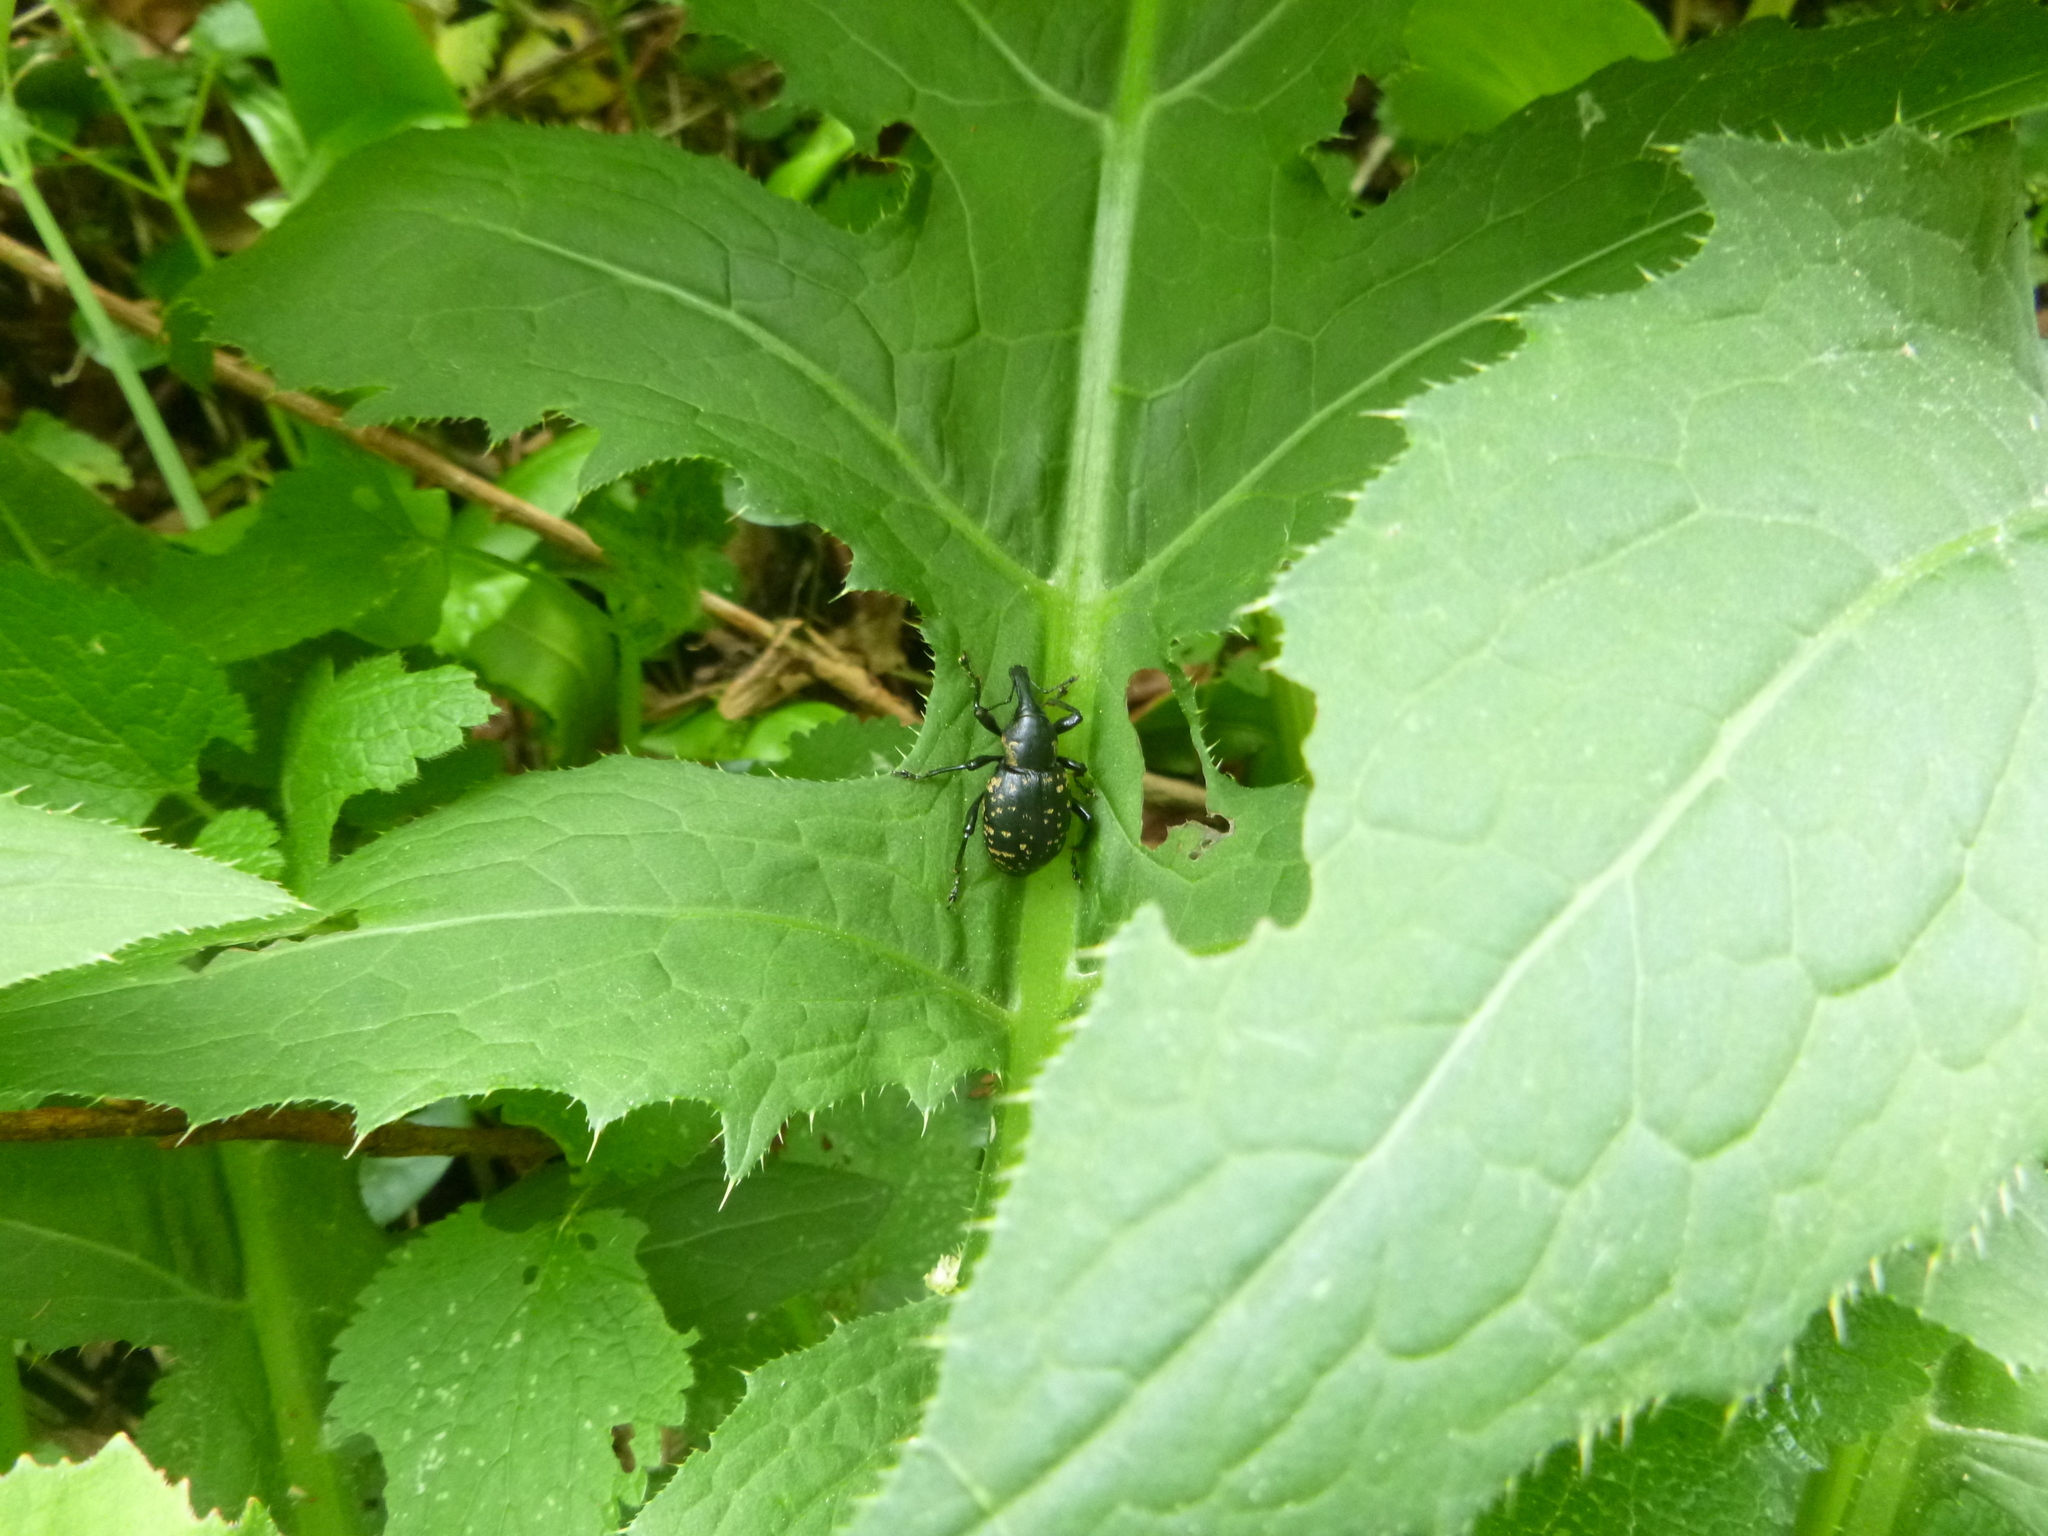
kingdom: Animalia
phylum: Arthropoda
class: Insecta
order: Coleoptera
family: Curculionidae
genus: Liparus
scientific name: Liparus glabrirostris
